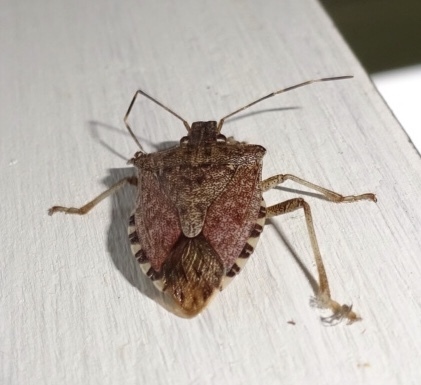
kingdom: Animalia
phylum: Arthropoda
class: Insecta
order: Hemiptera
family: Pentatomidae
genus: Halyomorpha
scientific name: Halyomorpha halys
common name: Brown marmorated stink bug
